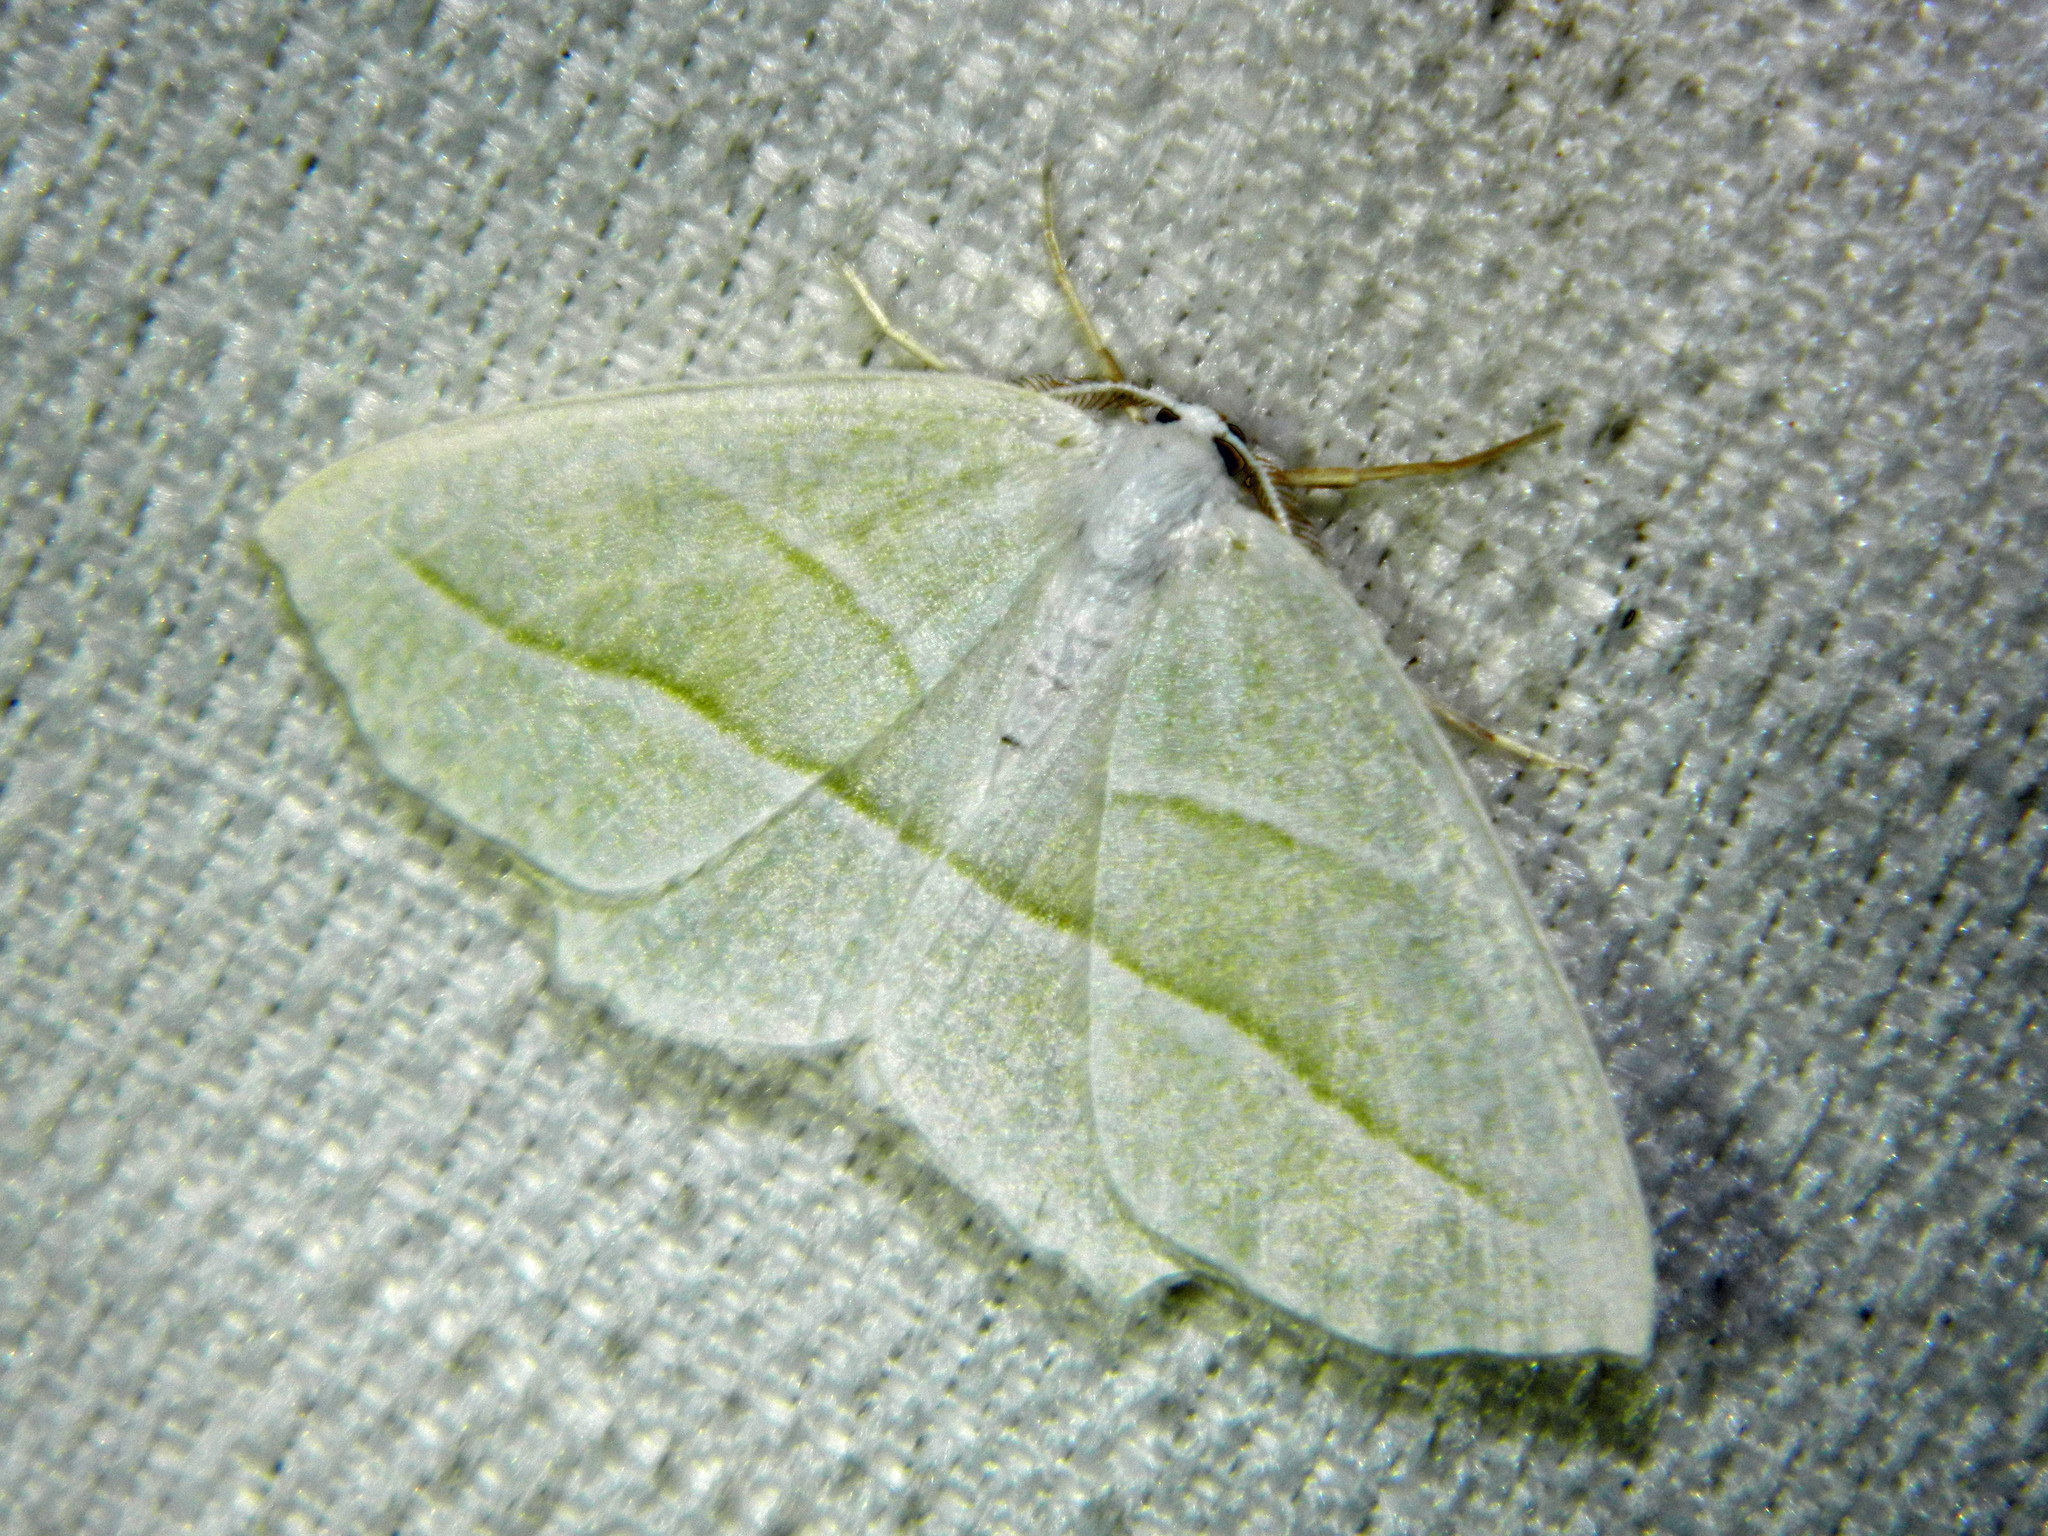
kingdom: Animalia
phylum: Arthropoda
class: Insecta
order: Lepidoptera
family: Geometridae
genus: Campaea
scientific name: Campaea perlata
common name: Fringed looper
